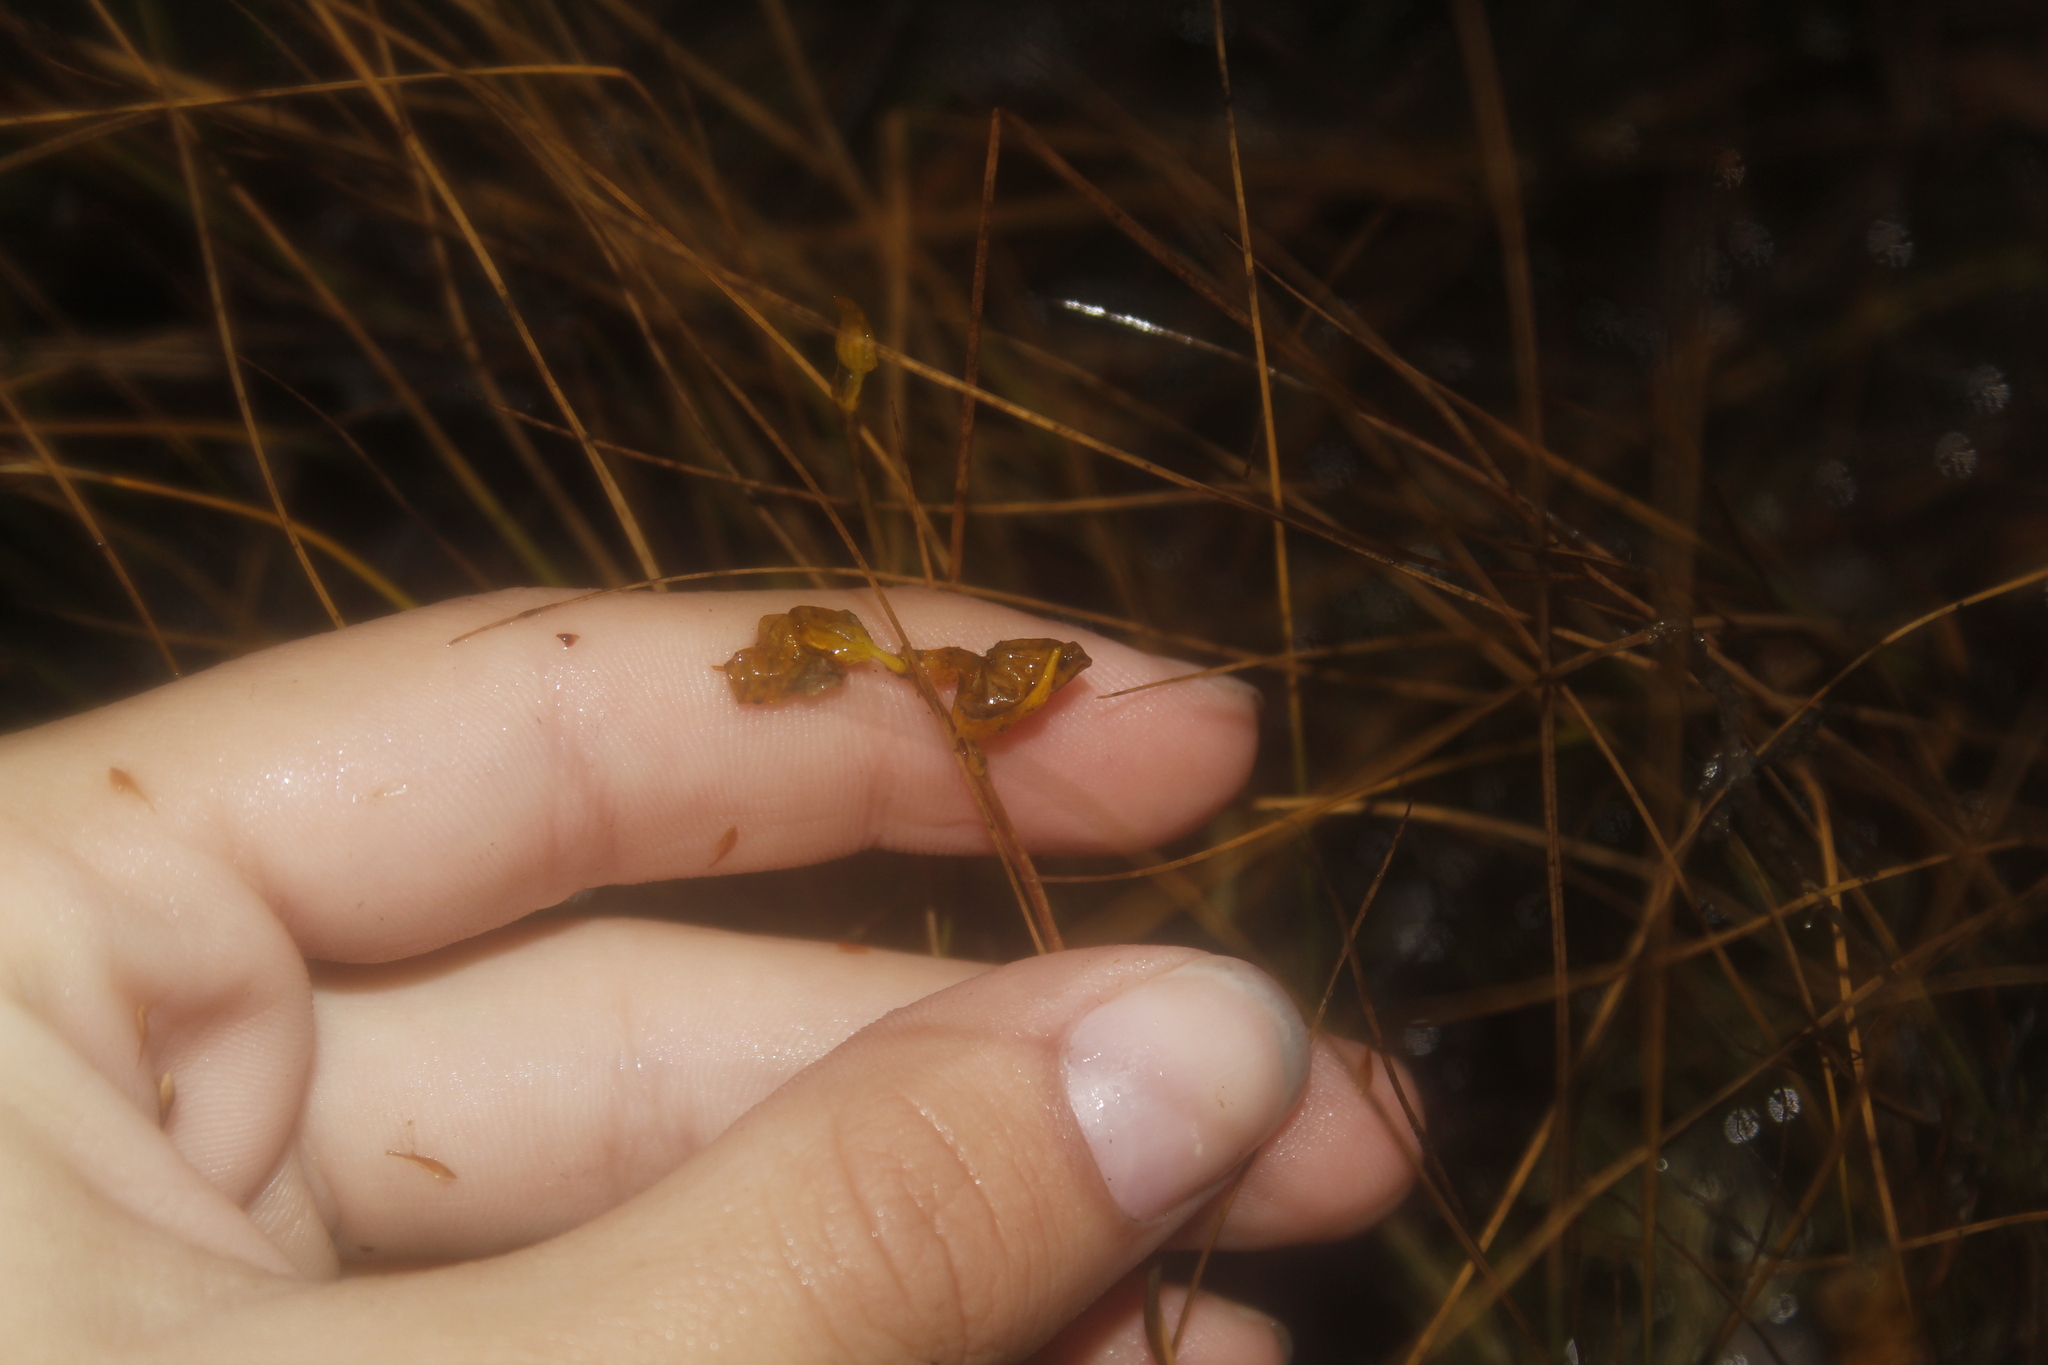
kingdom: Plantae
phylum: Tracheophyta
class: Magnoliopsida
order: Lamiales
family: Lentibulariaceae
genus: Utricularia
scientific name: Utricularia cornuta
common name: Horned bladderwort
